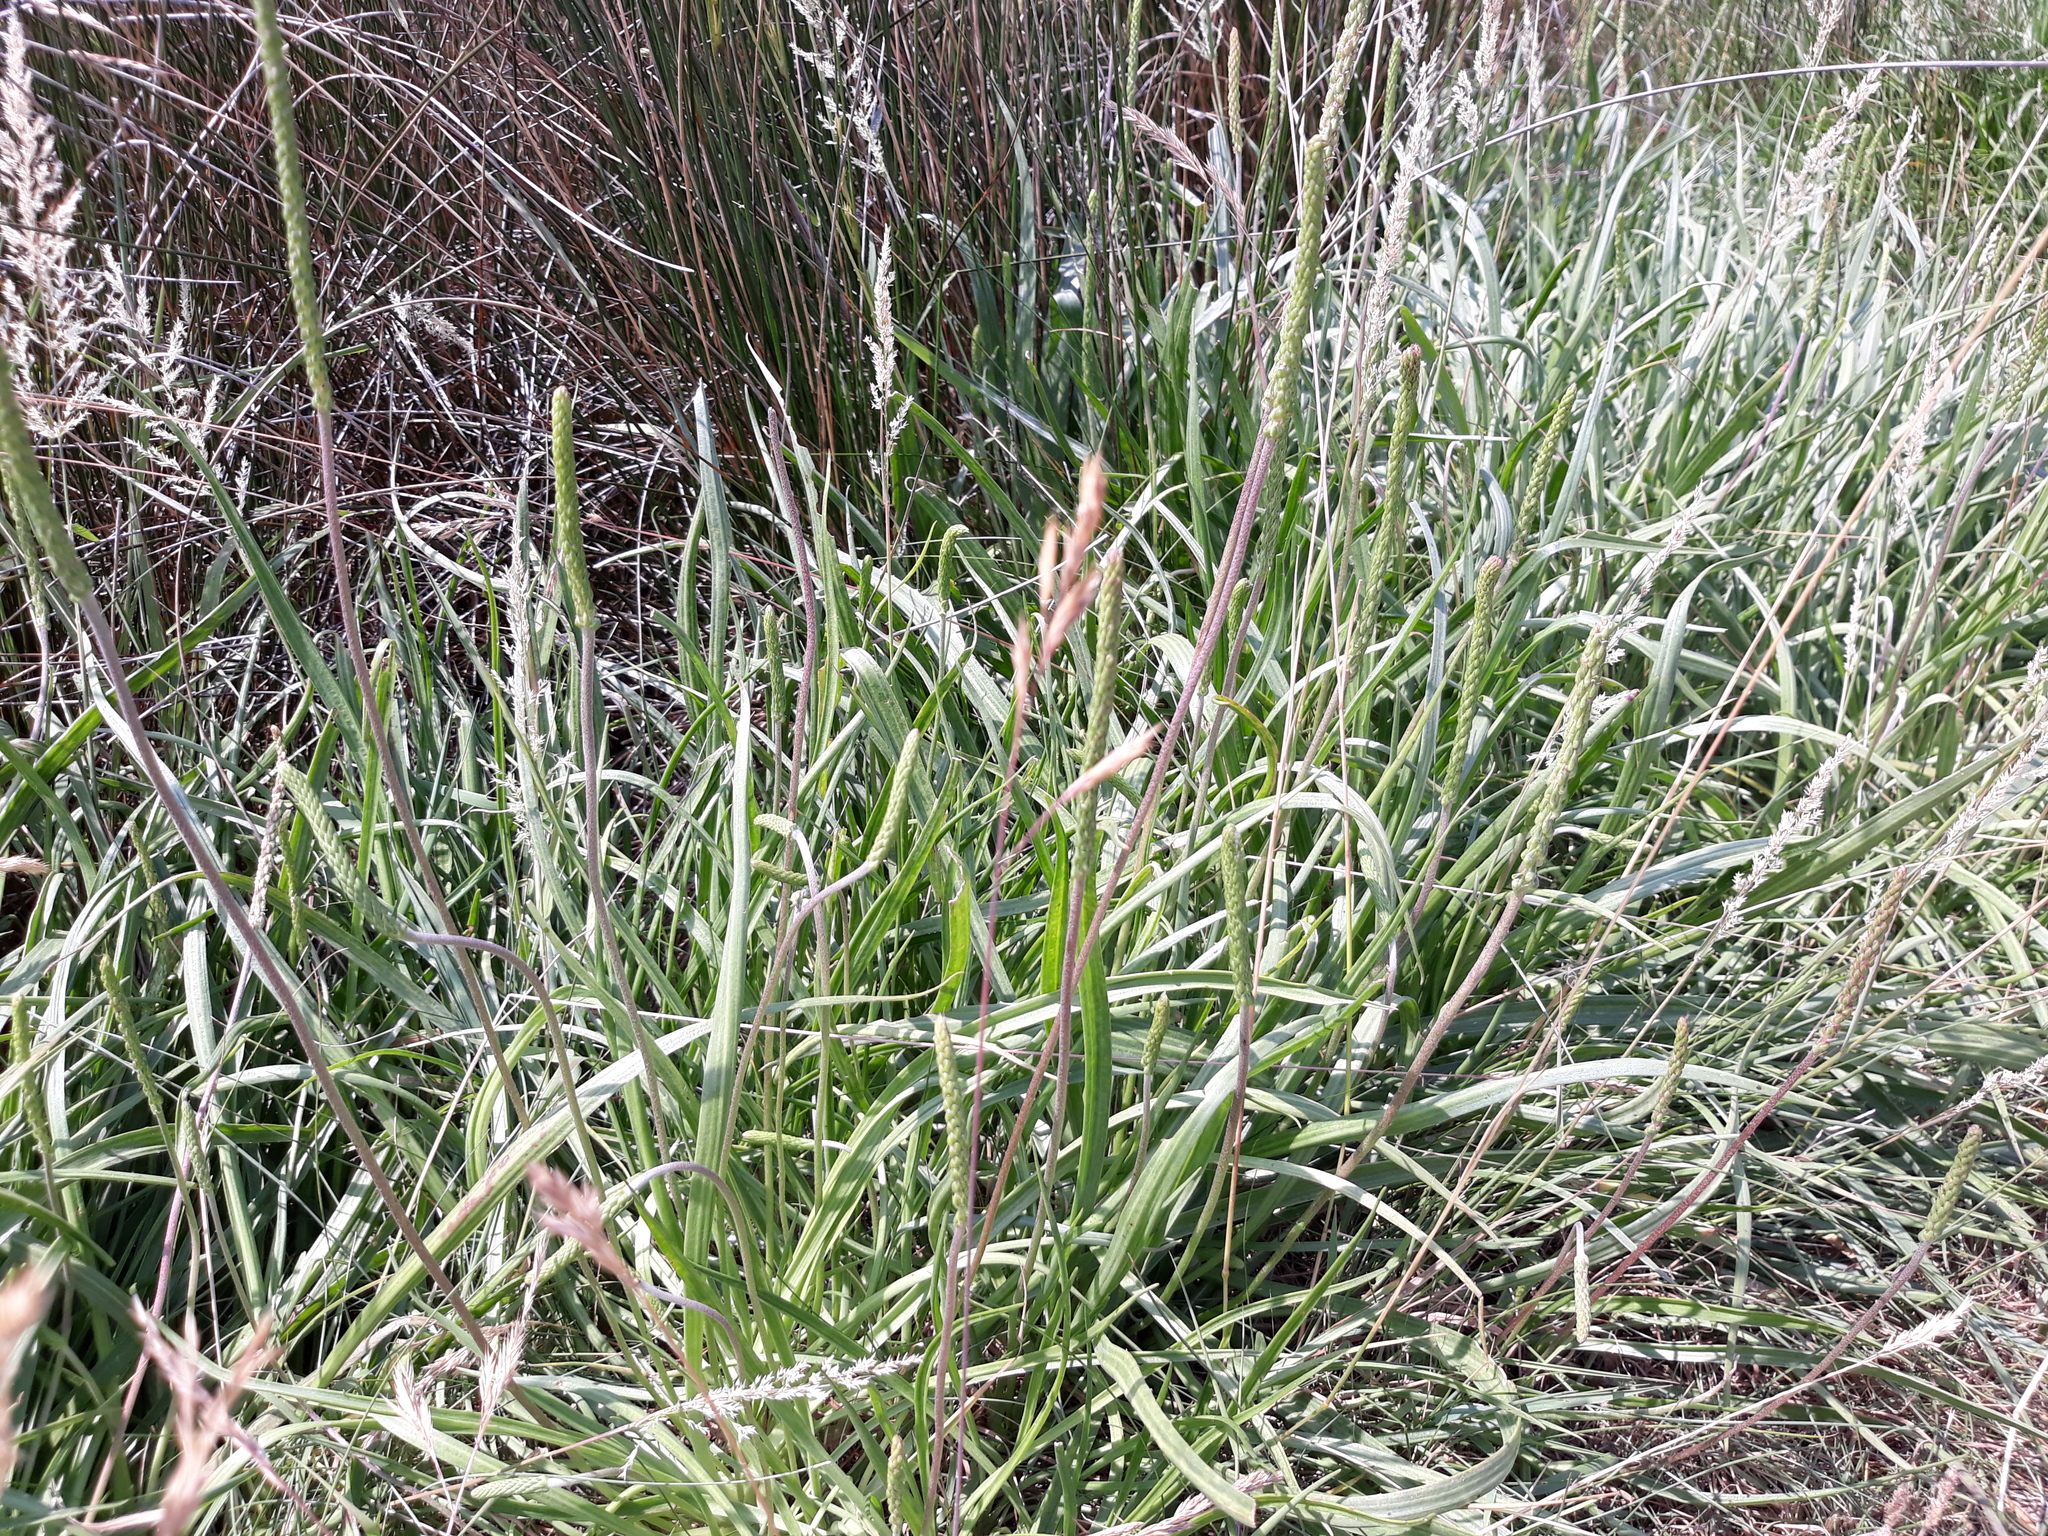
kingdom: Plantae
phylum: Tracheophyta
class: Magnoliopsida
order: Lamiales
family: Plantaginaceae
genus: Plantago
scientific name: Plantago maritima
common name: Sea plantain
